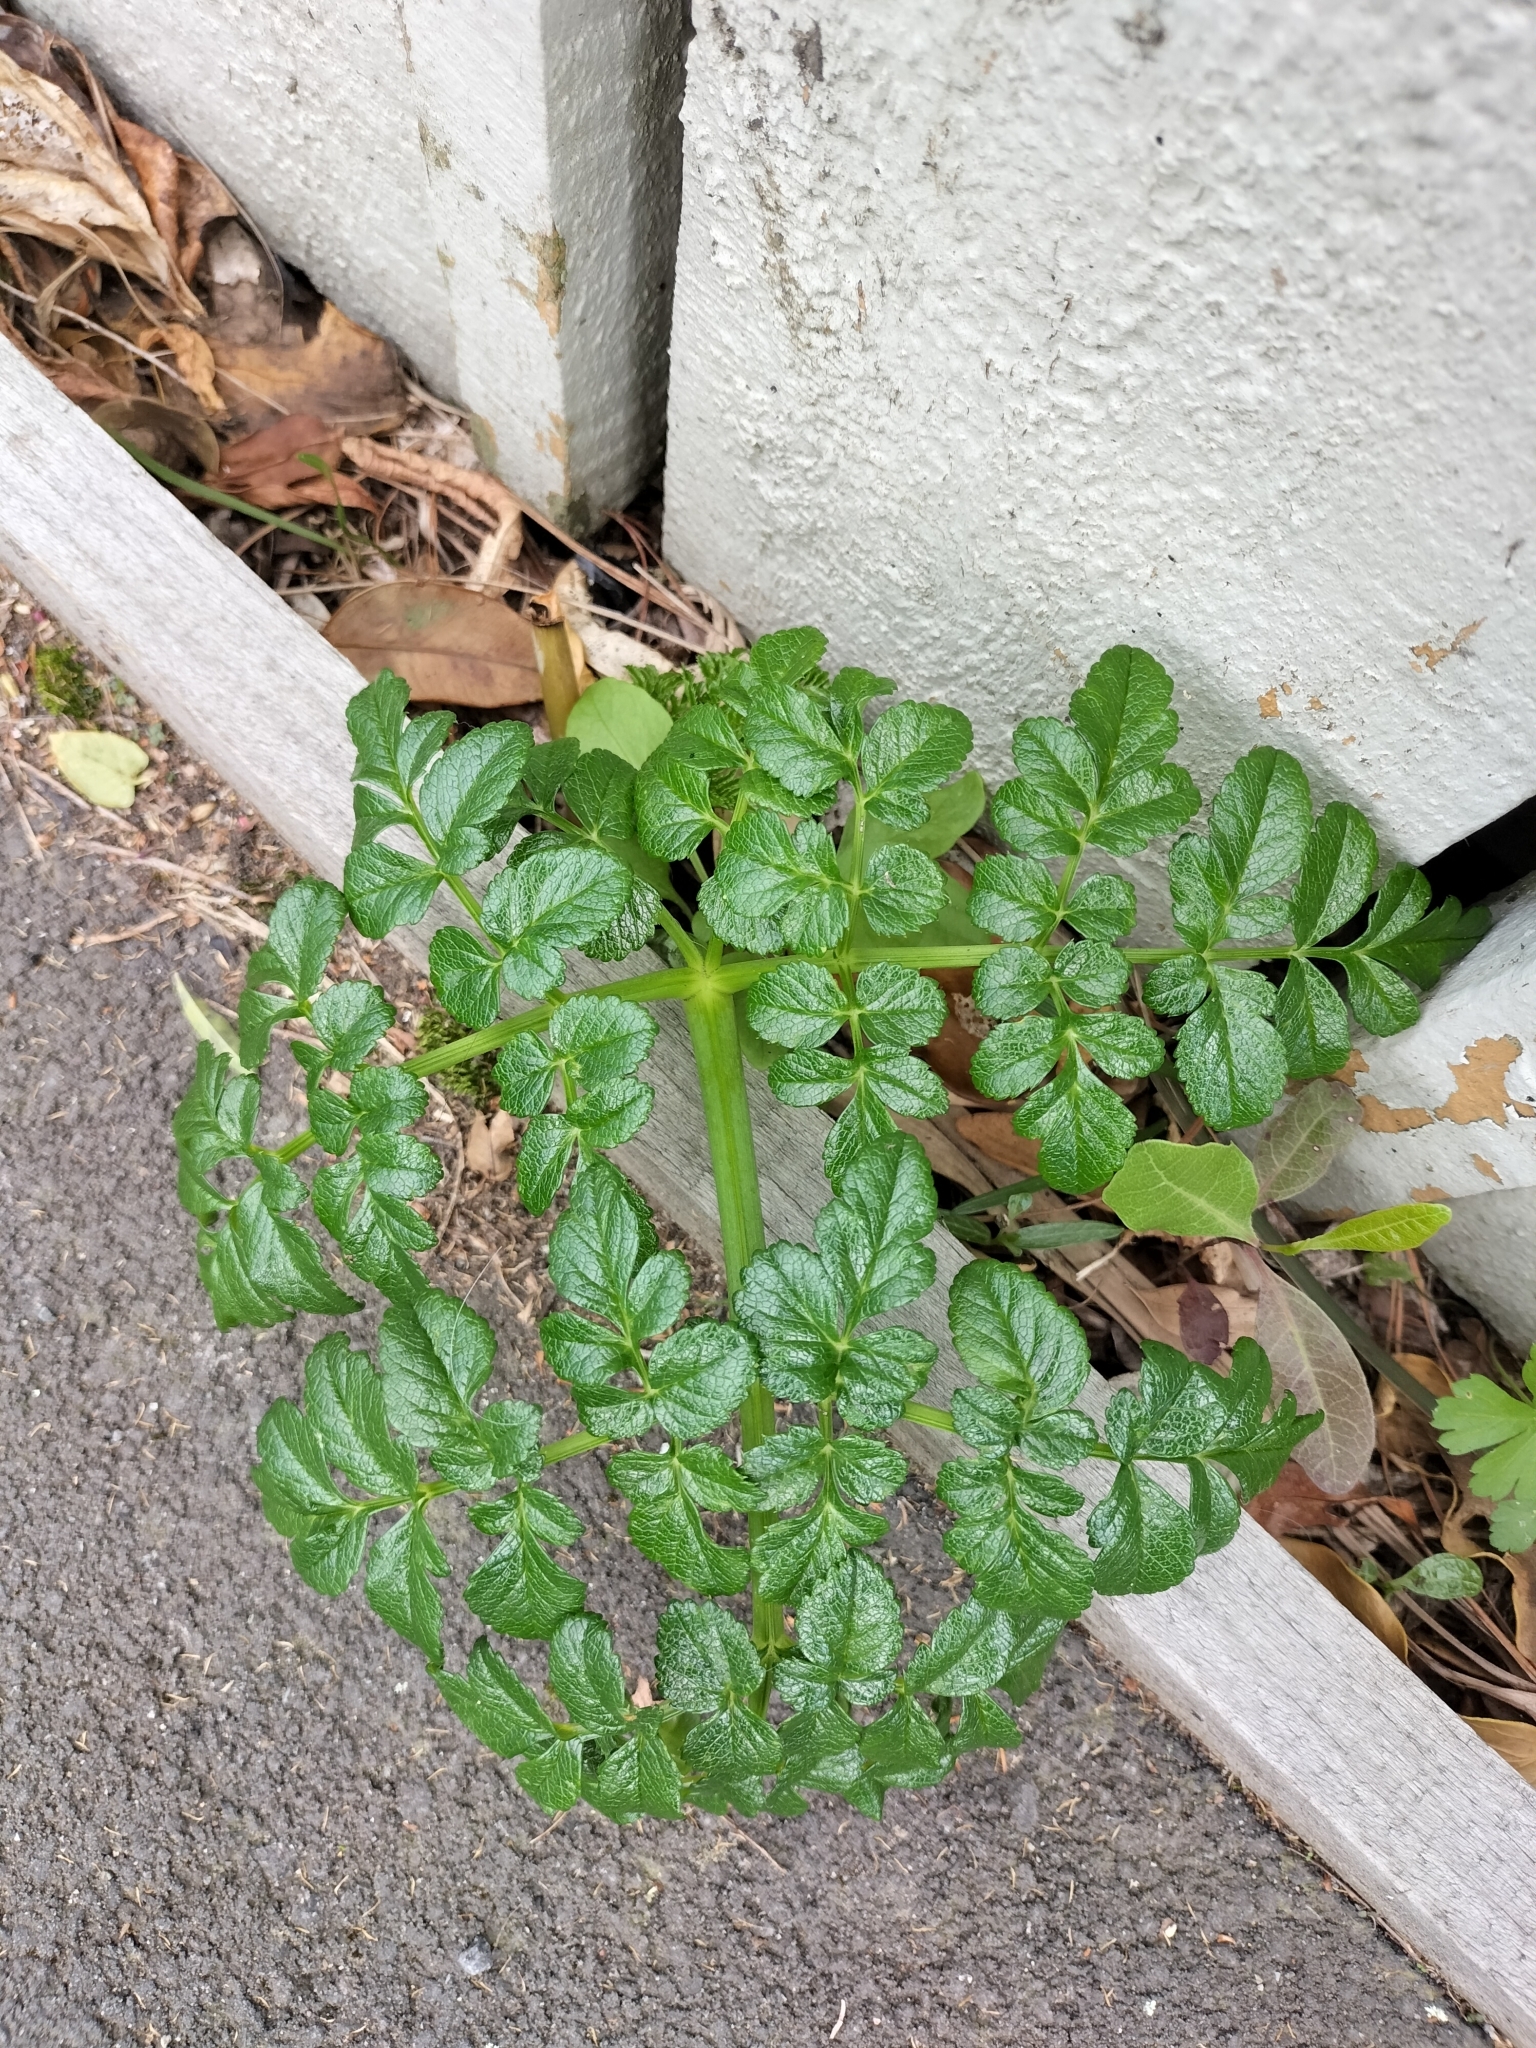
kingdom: Plantae
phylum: Tracheophyta
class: Magnoliopsida
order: Apiales
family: Apiaceae
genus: Angelica
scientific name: Angelica pachycarpa
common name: Portuguese angelica
